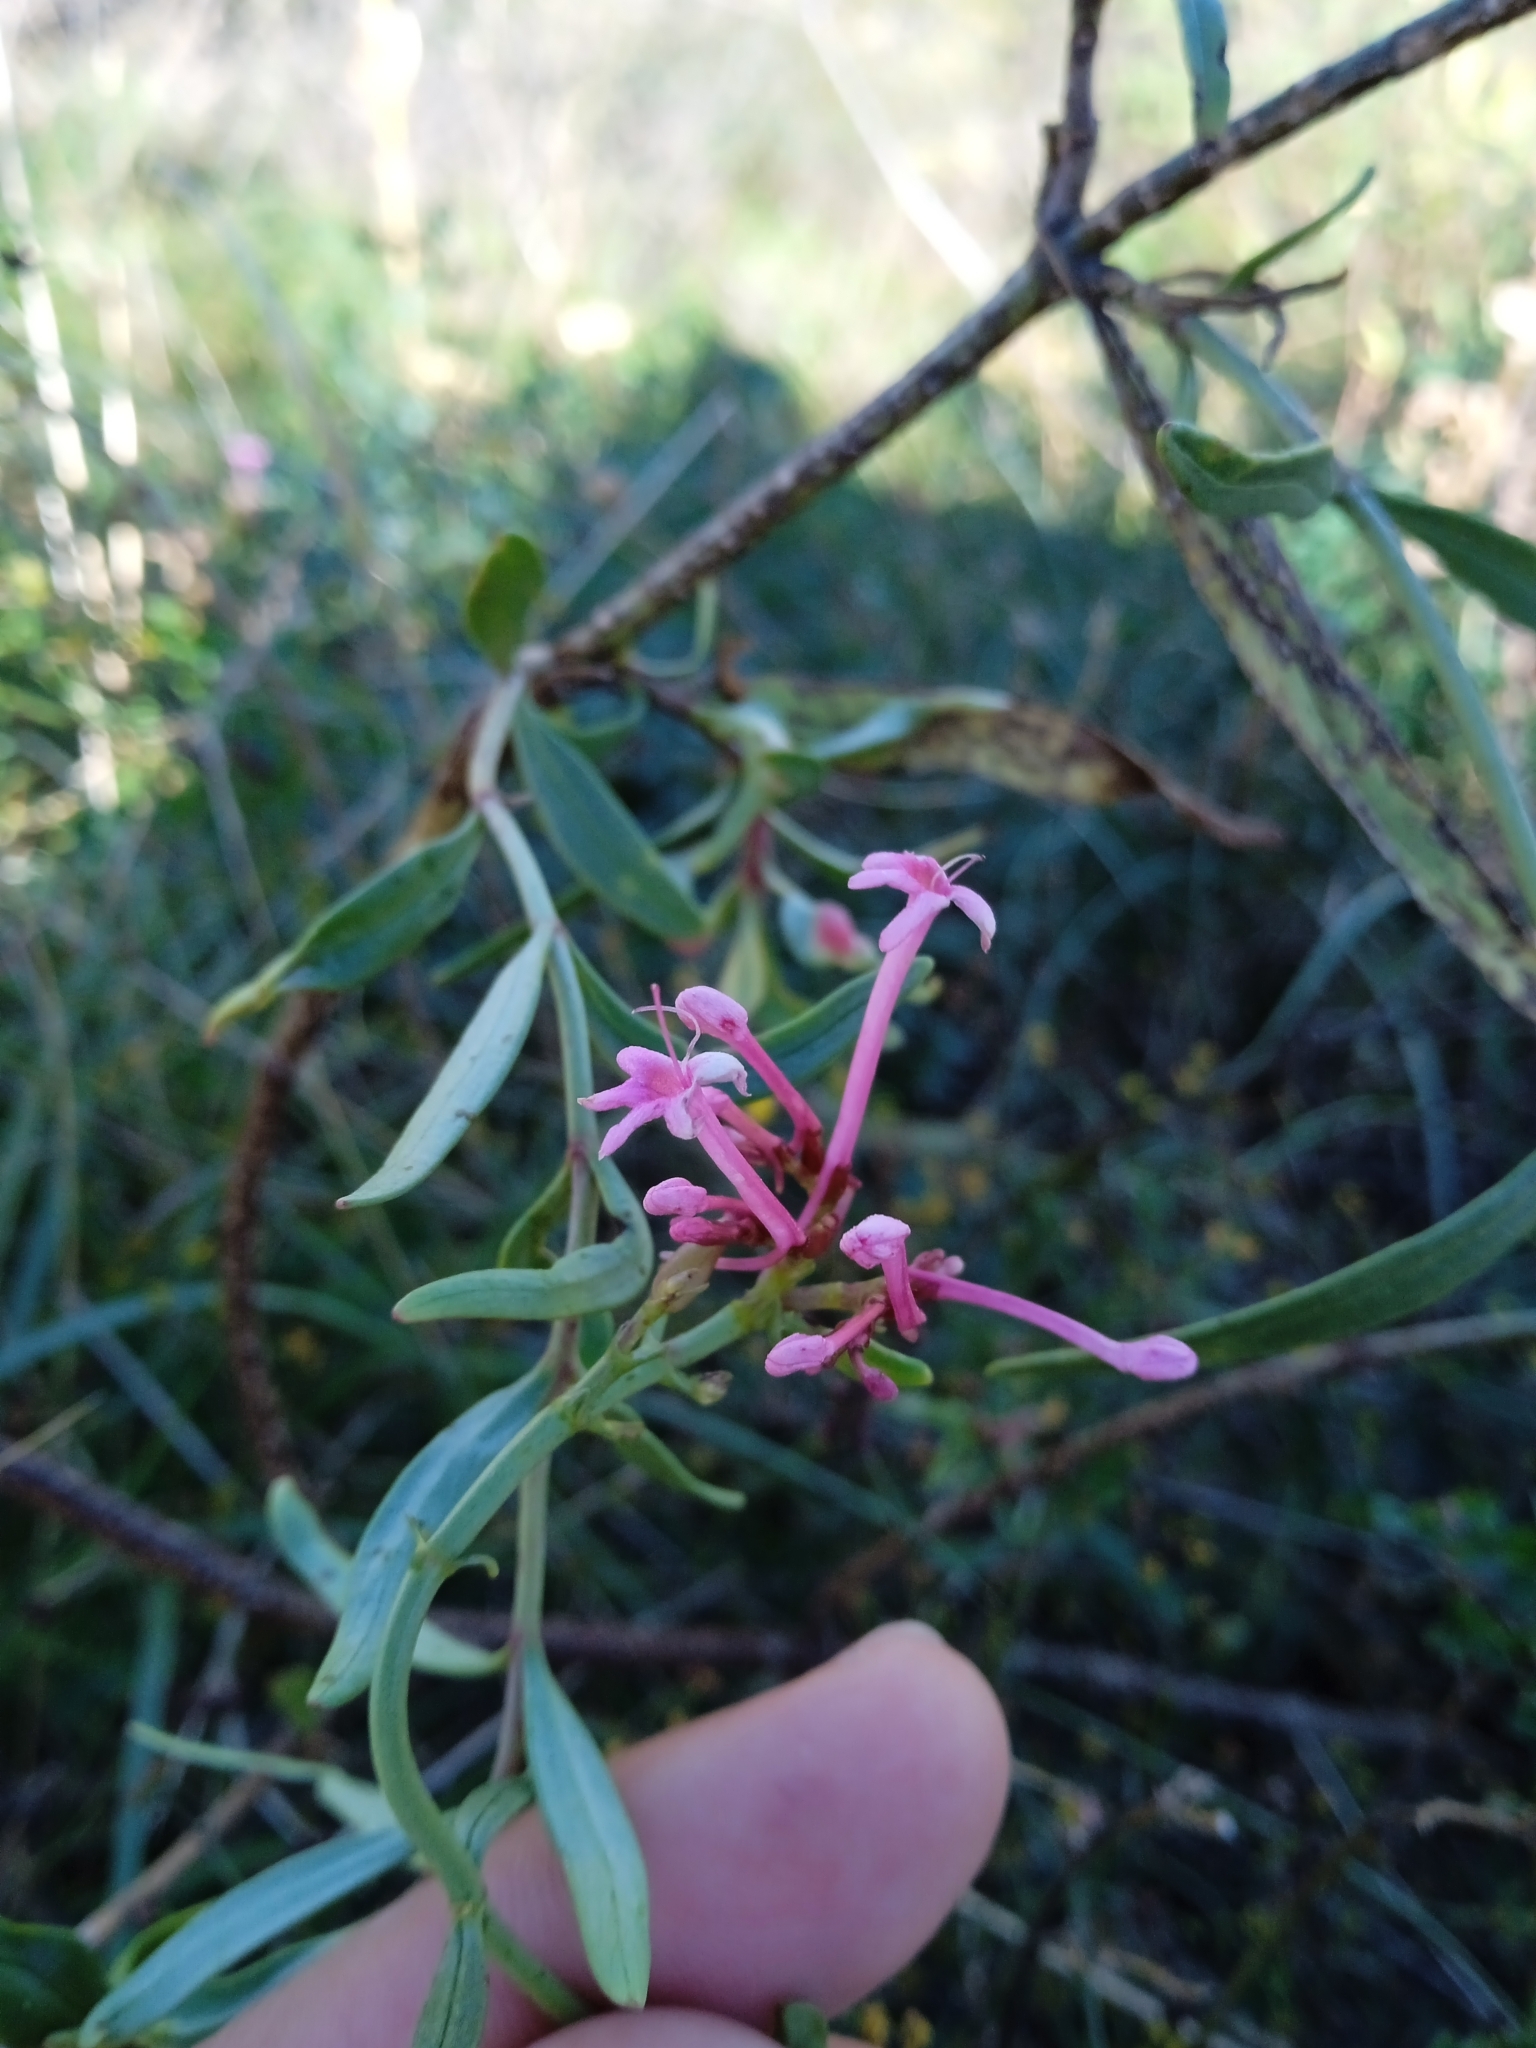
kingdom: Plantae
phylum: Tracheophyta
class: Magnoliopsida
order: Dipsacales
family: Caprifoliaceae
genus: Centranthus
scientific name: Centranthus ruber
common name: Red valerian
